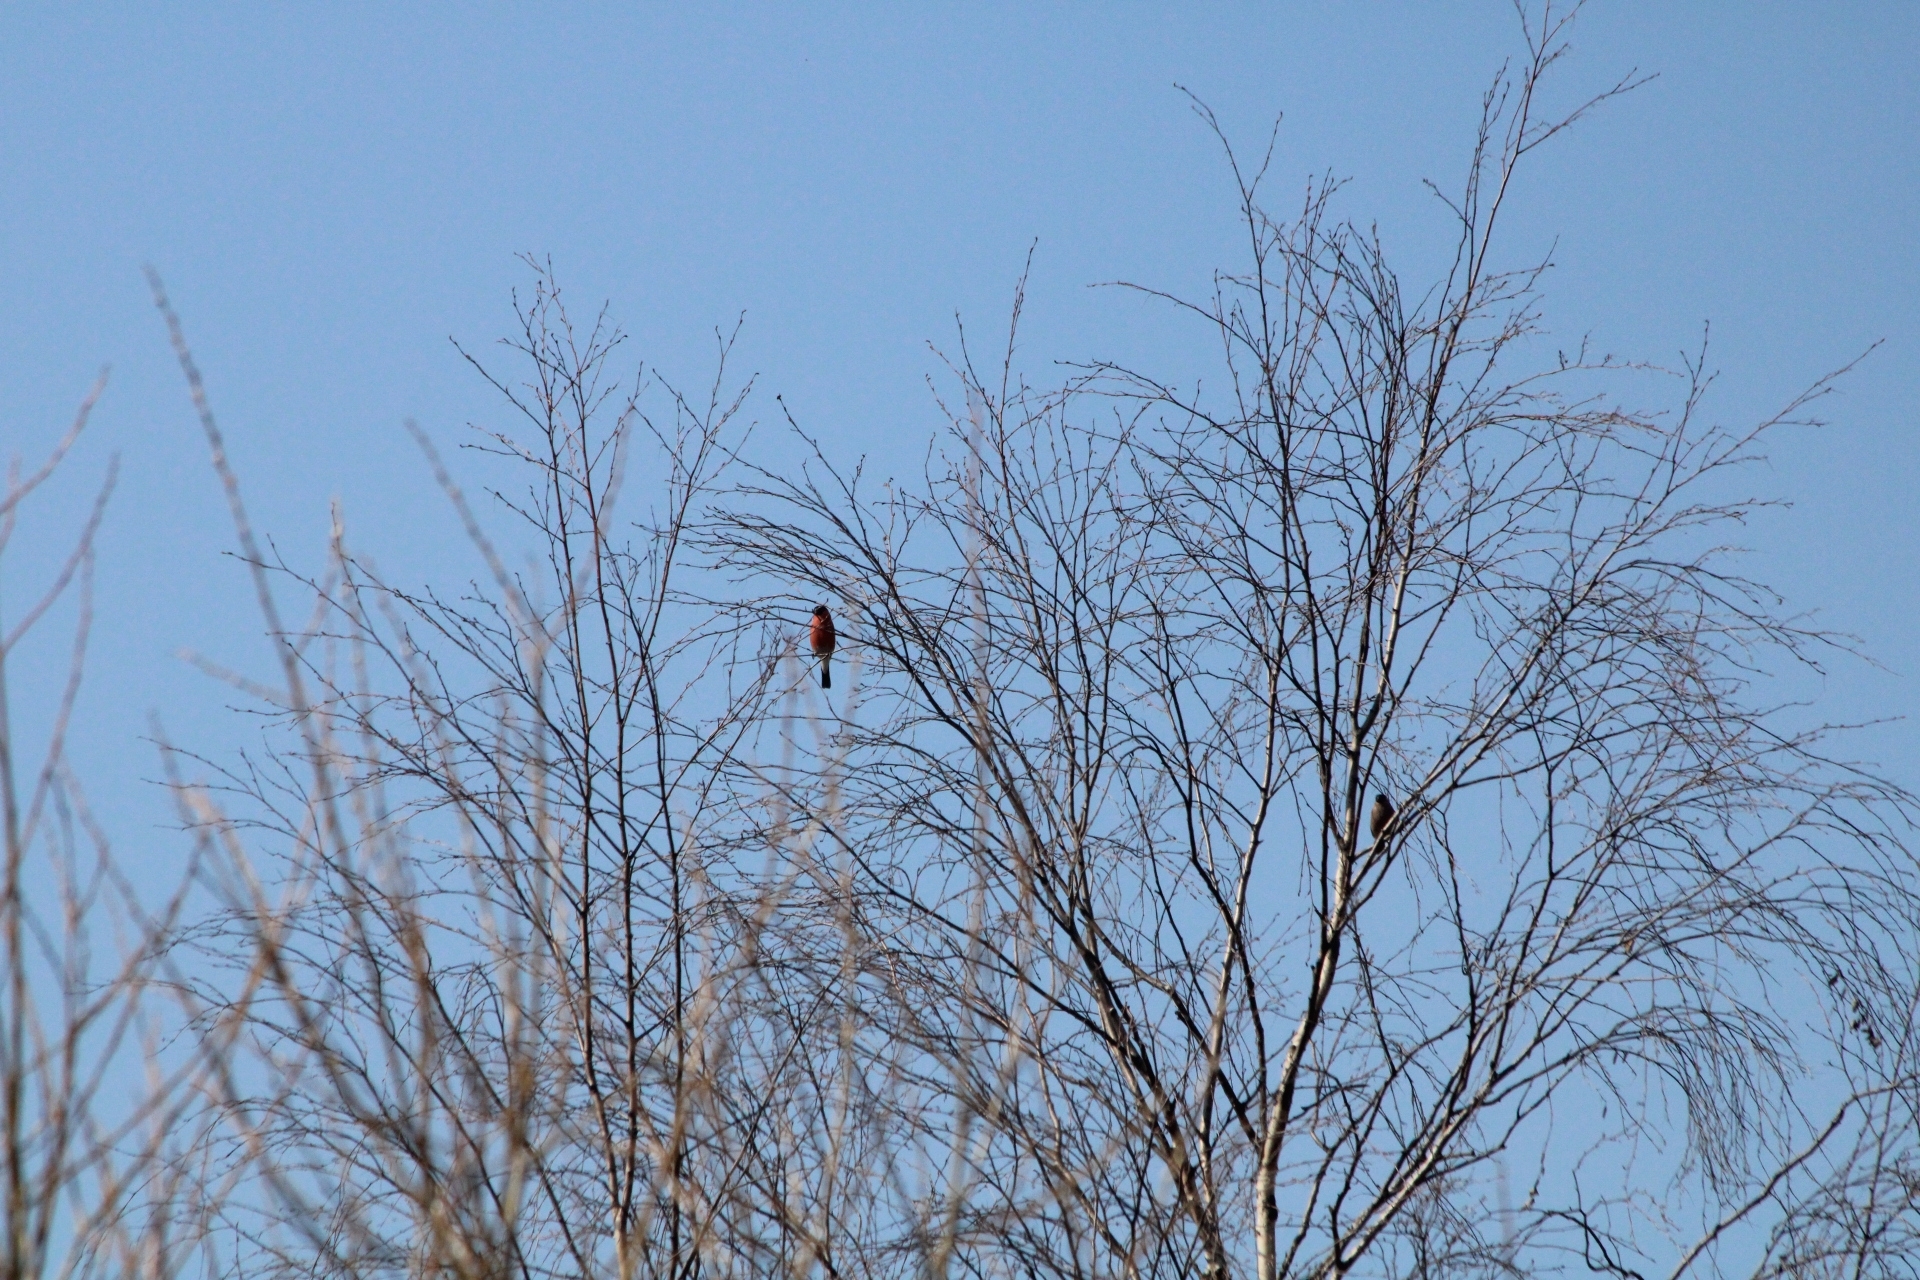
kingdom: Animalia
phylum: Chordata
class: Aves
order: Passeriformes
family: Fringillidae
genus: Pyrrhula
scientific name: Pyrrhula pyrrhula
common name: Eurasian bullfinch
